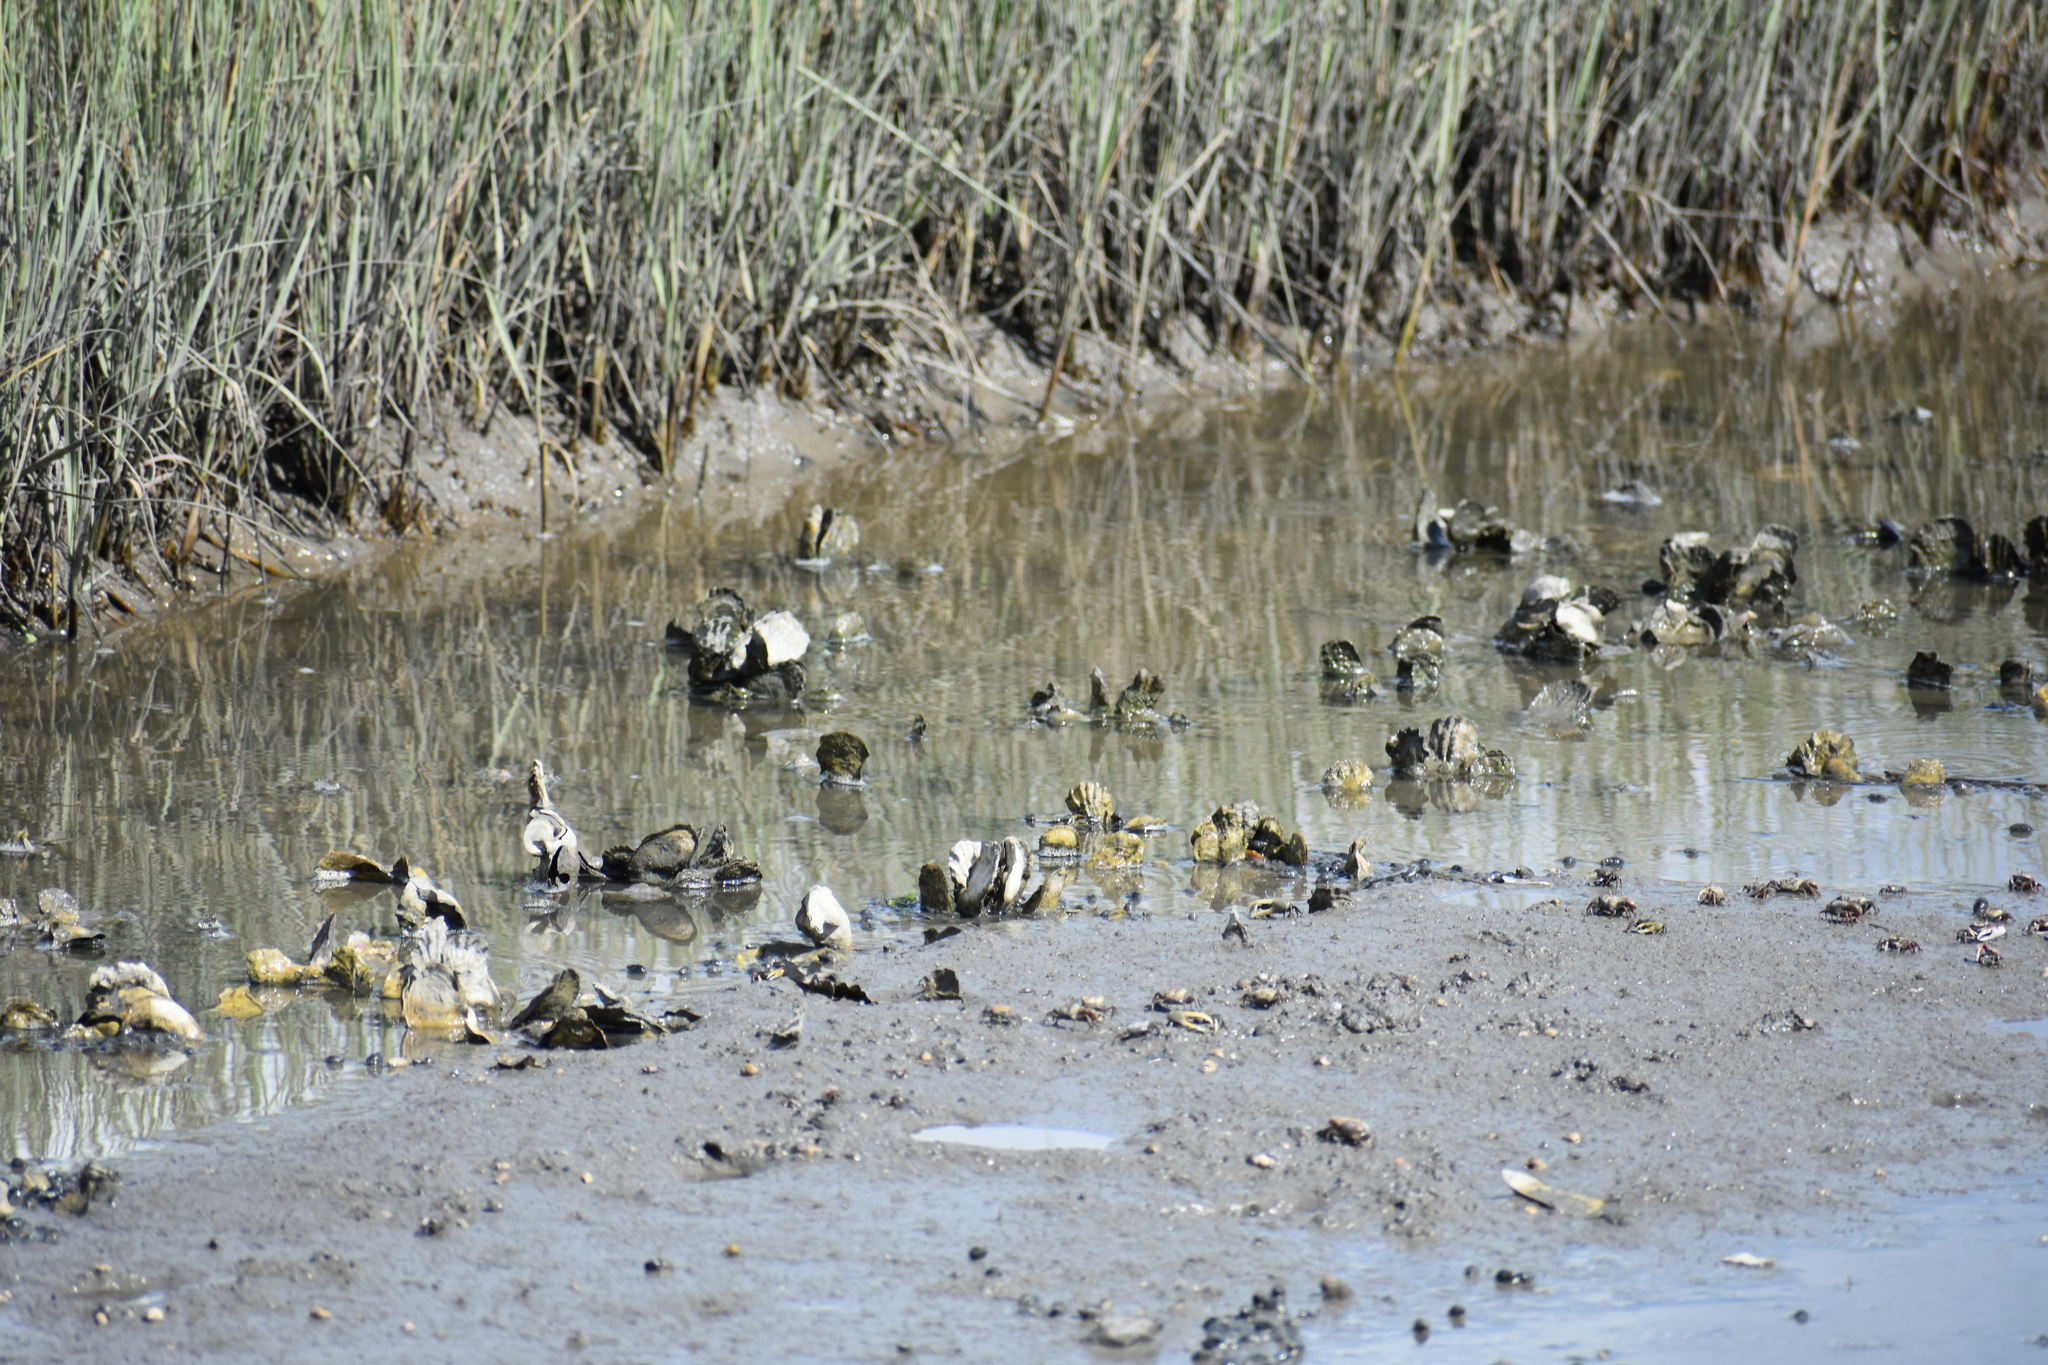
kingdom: Animalia
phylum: Mollusca
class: Bivalvia
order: Ostreida
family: Ostreidae
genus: Crassostrea
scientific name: Crassostrea virginica
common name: American oyster
